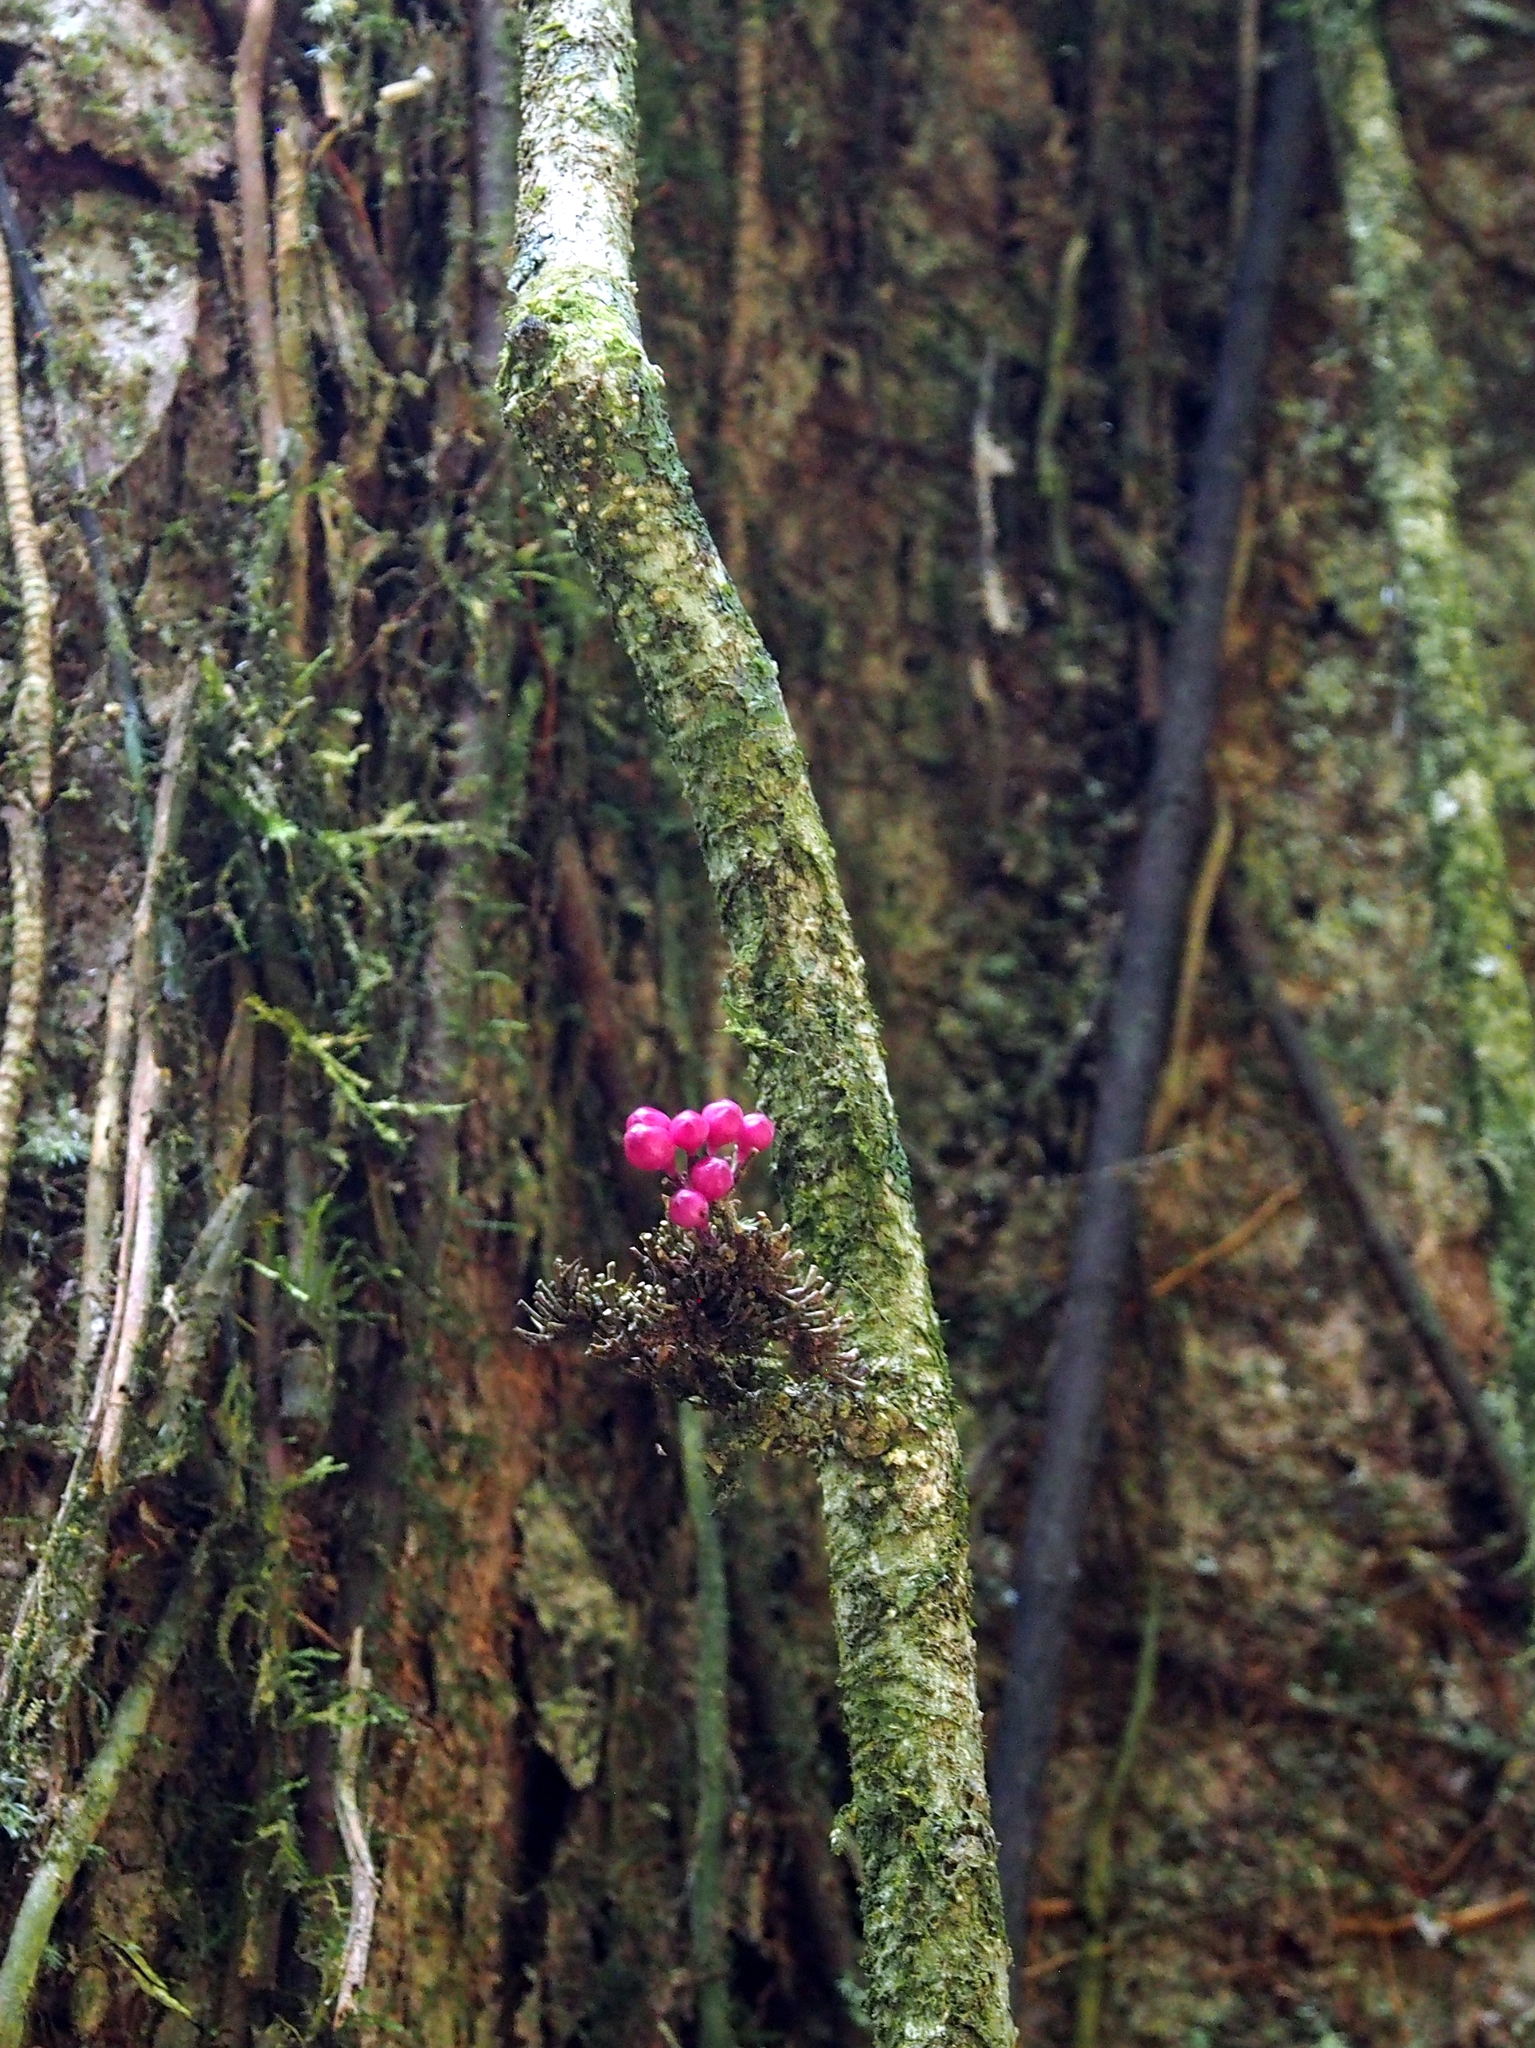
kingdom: Plantae
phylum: Tracheophyta
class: Magnoliopsida
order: Lamiales
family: Schlegeliaceae
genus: Schlegelia
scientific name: Schlegelia fastigiata
